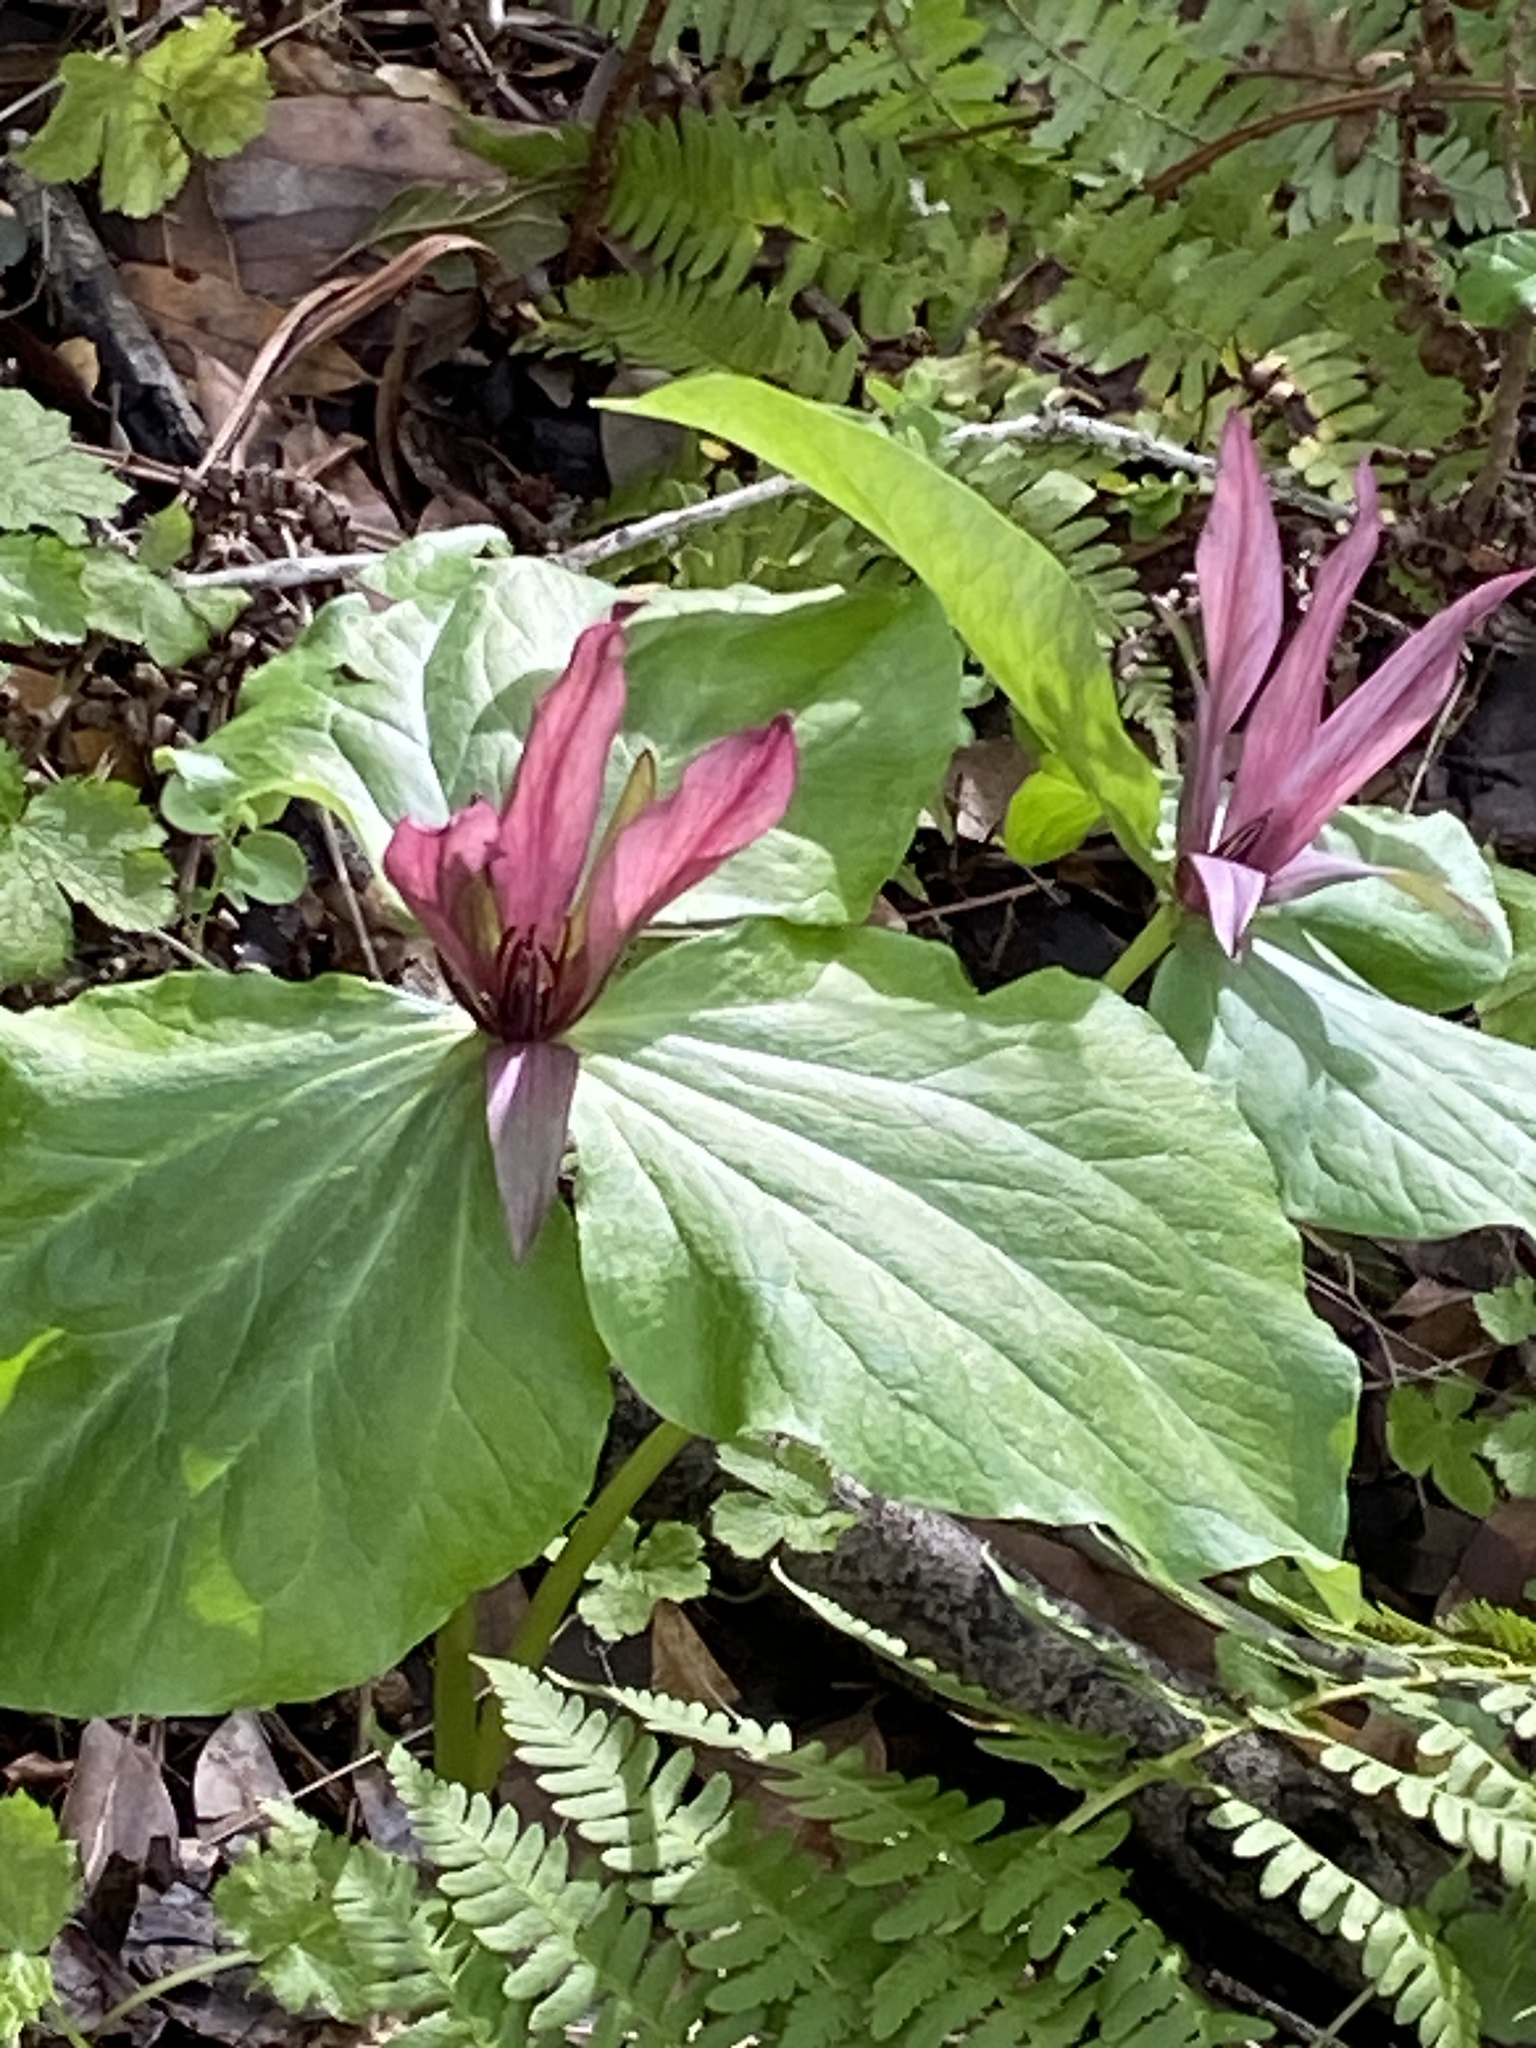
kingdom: Plantae
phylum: Tracheophyta
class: Liliopsida
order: Liliales
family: Melanthiaceae
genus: Trillium
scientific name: Trillium chloropetalum
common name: Giant trillium
